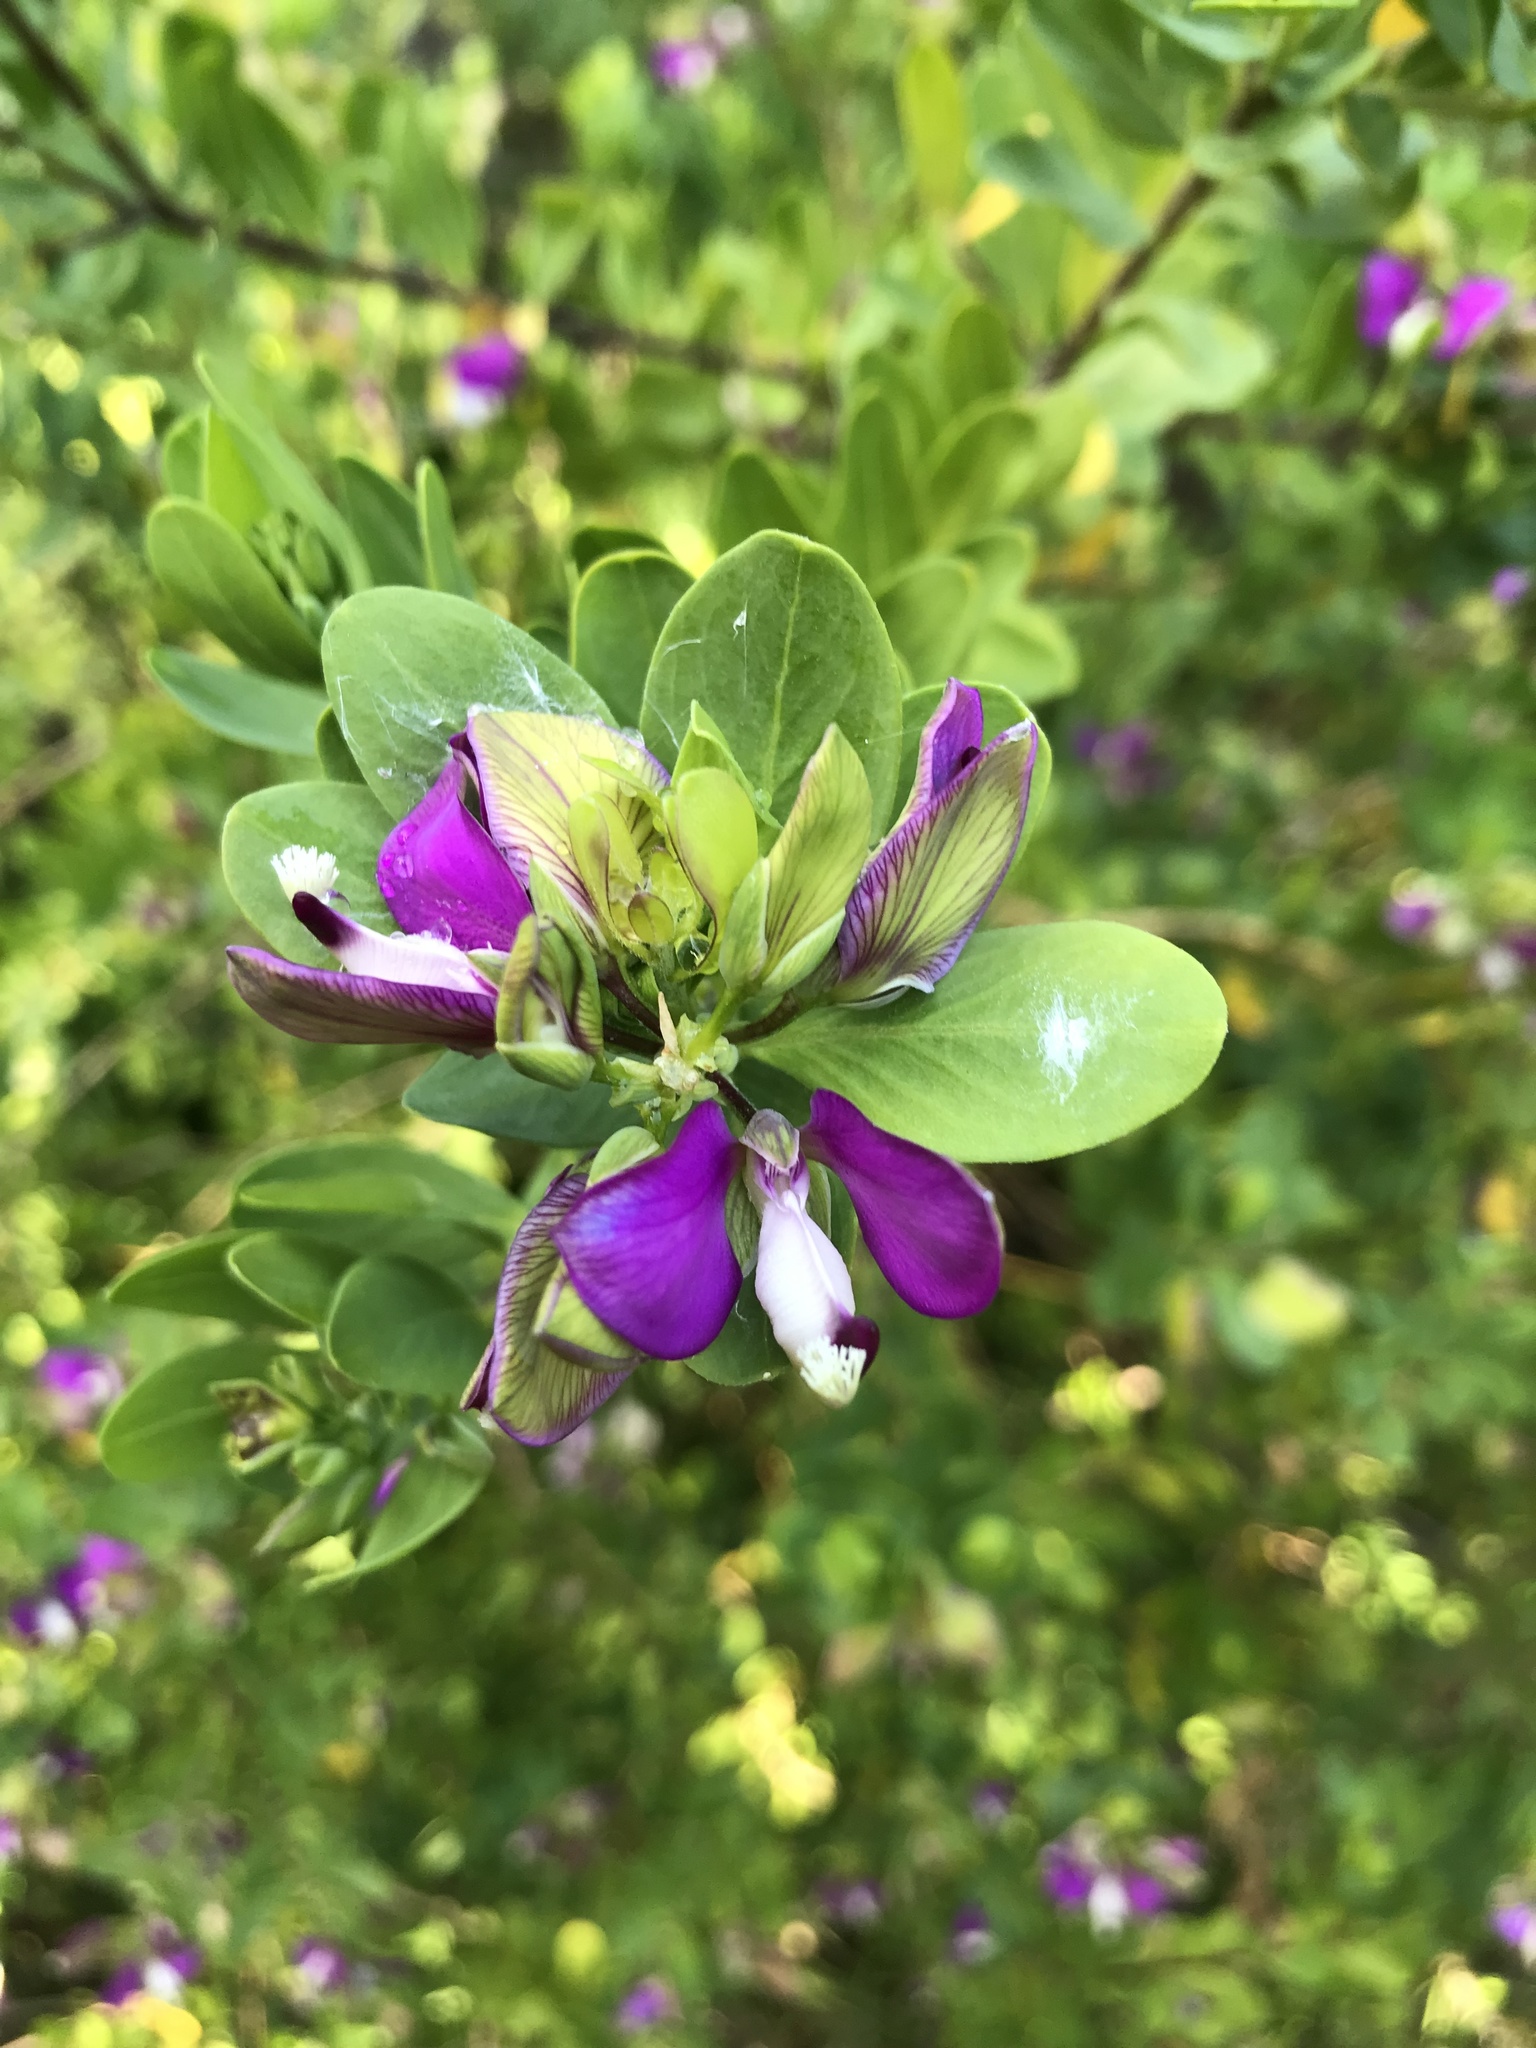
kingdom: Plantae
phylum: Tracheophyta
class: Magnoliopsida
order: Fabales
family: Polygalaceae
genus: Polygala
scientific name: Polygala myrtifolia
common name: Myrtle-leaf milkwort
